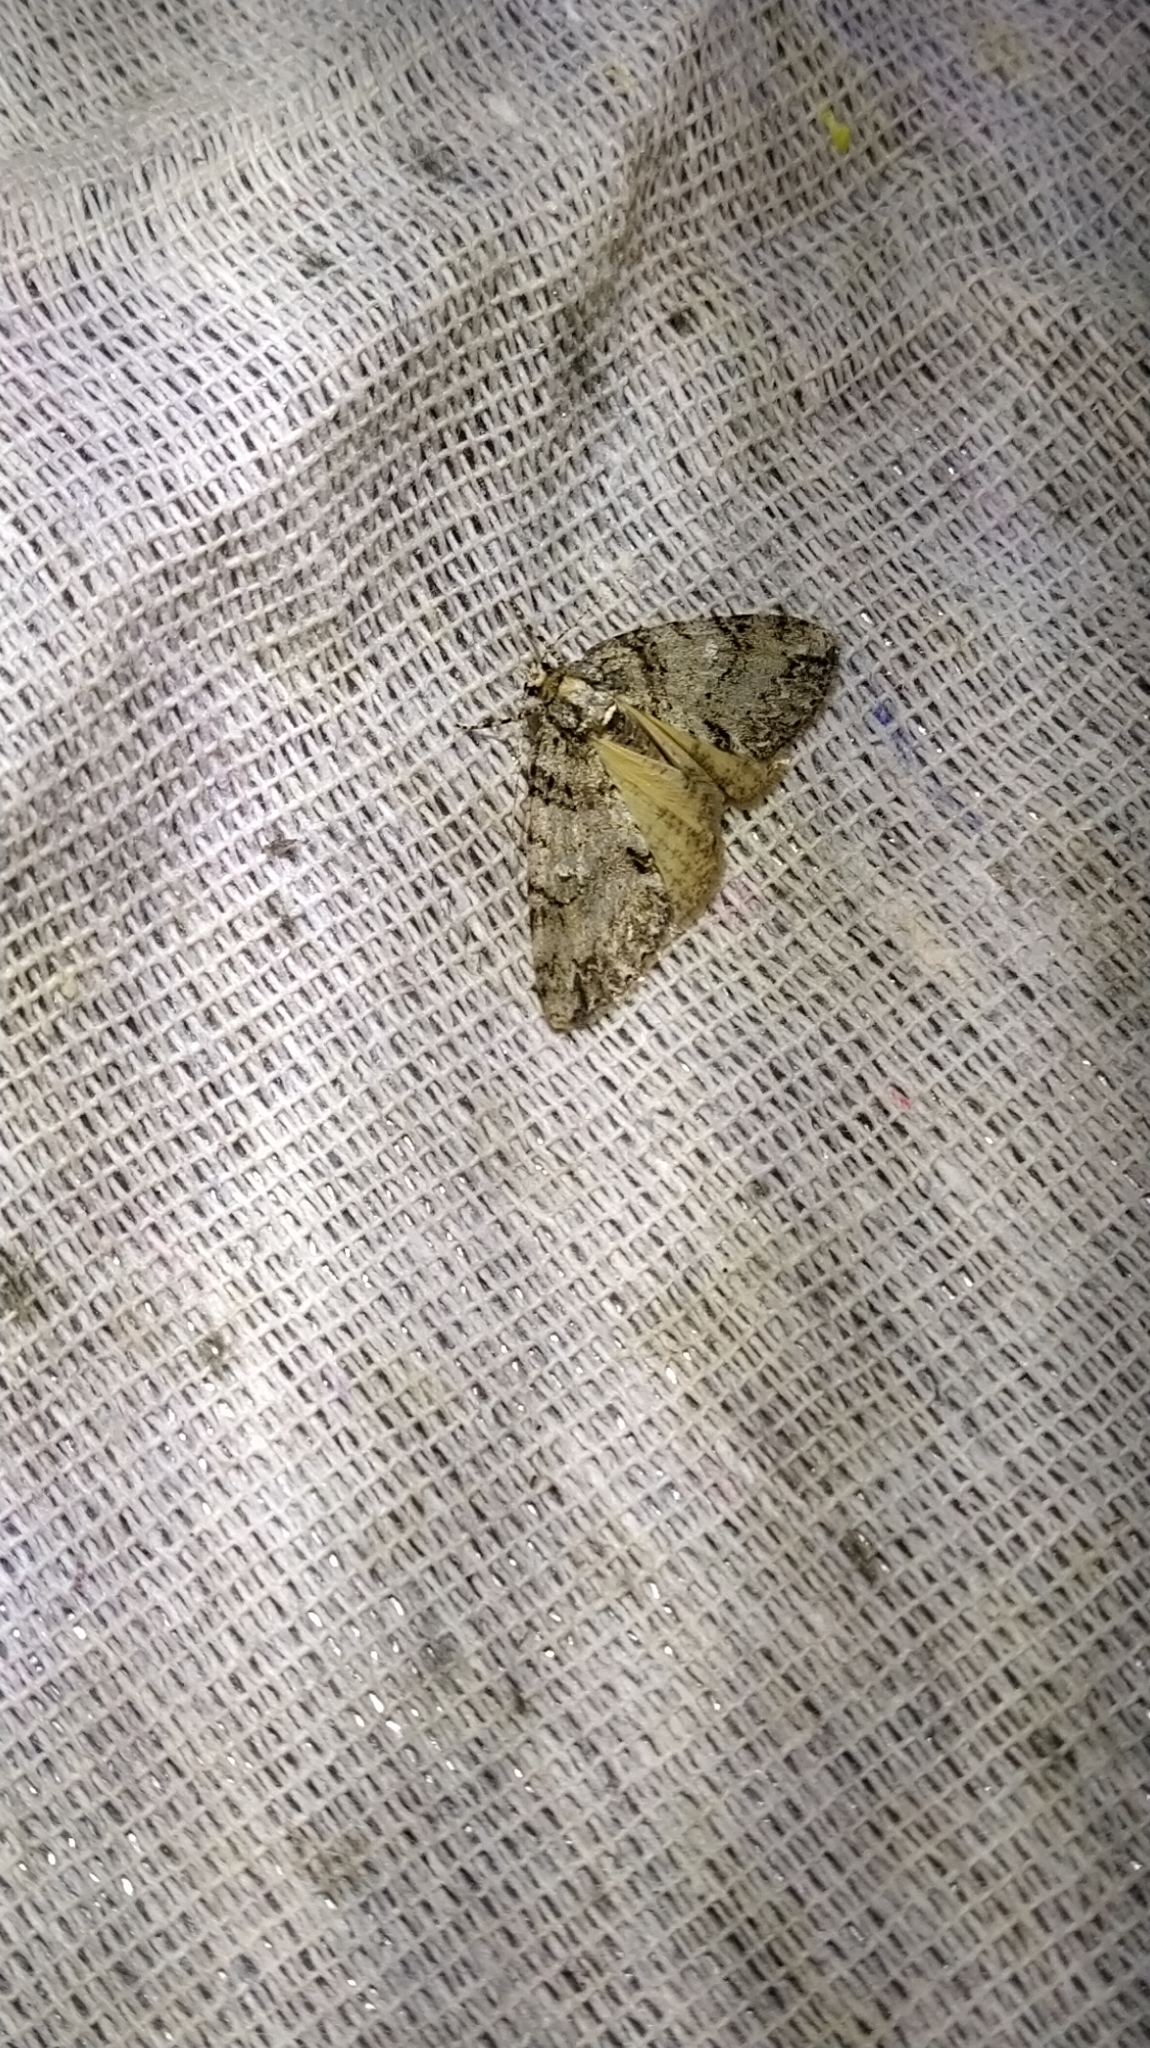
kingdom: Animalia
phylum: Arthropoda
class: Insecta
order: Lepidoptera
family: Geometridae
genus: Pseudocoremia
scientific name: Pseudocoremia suavis
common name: Common forest looper
